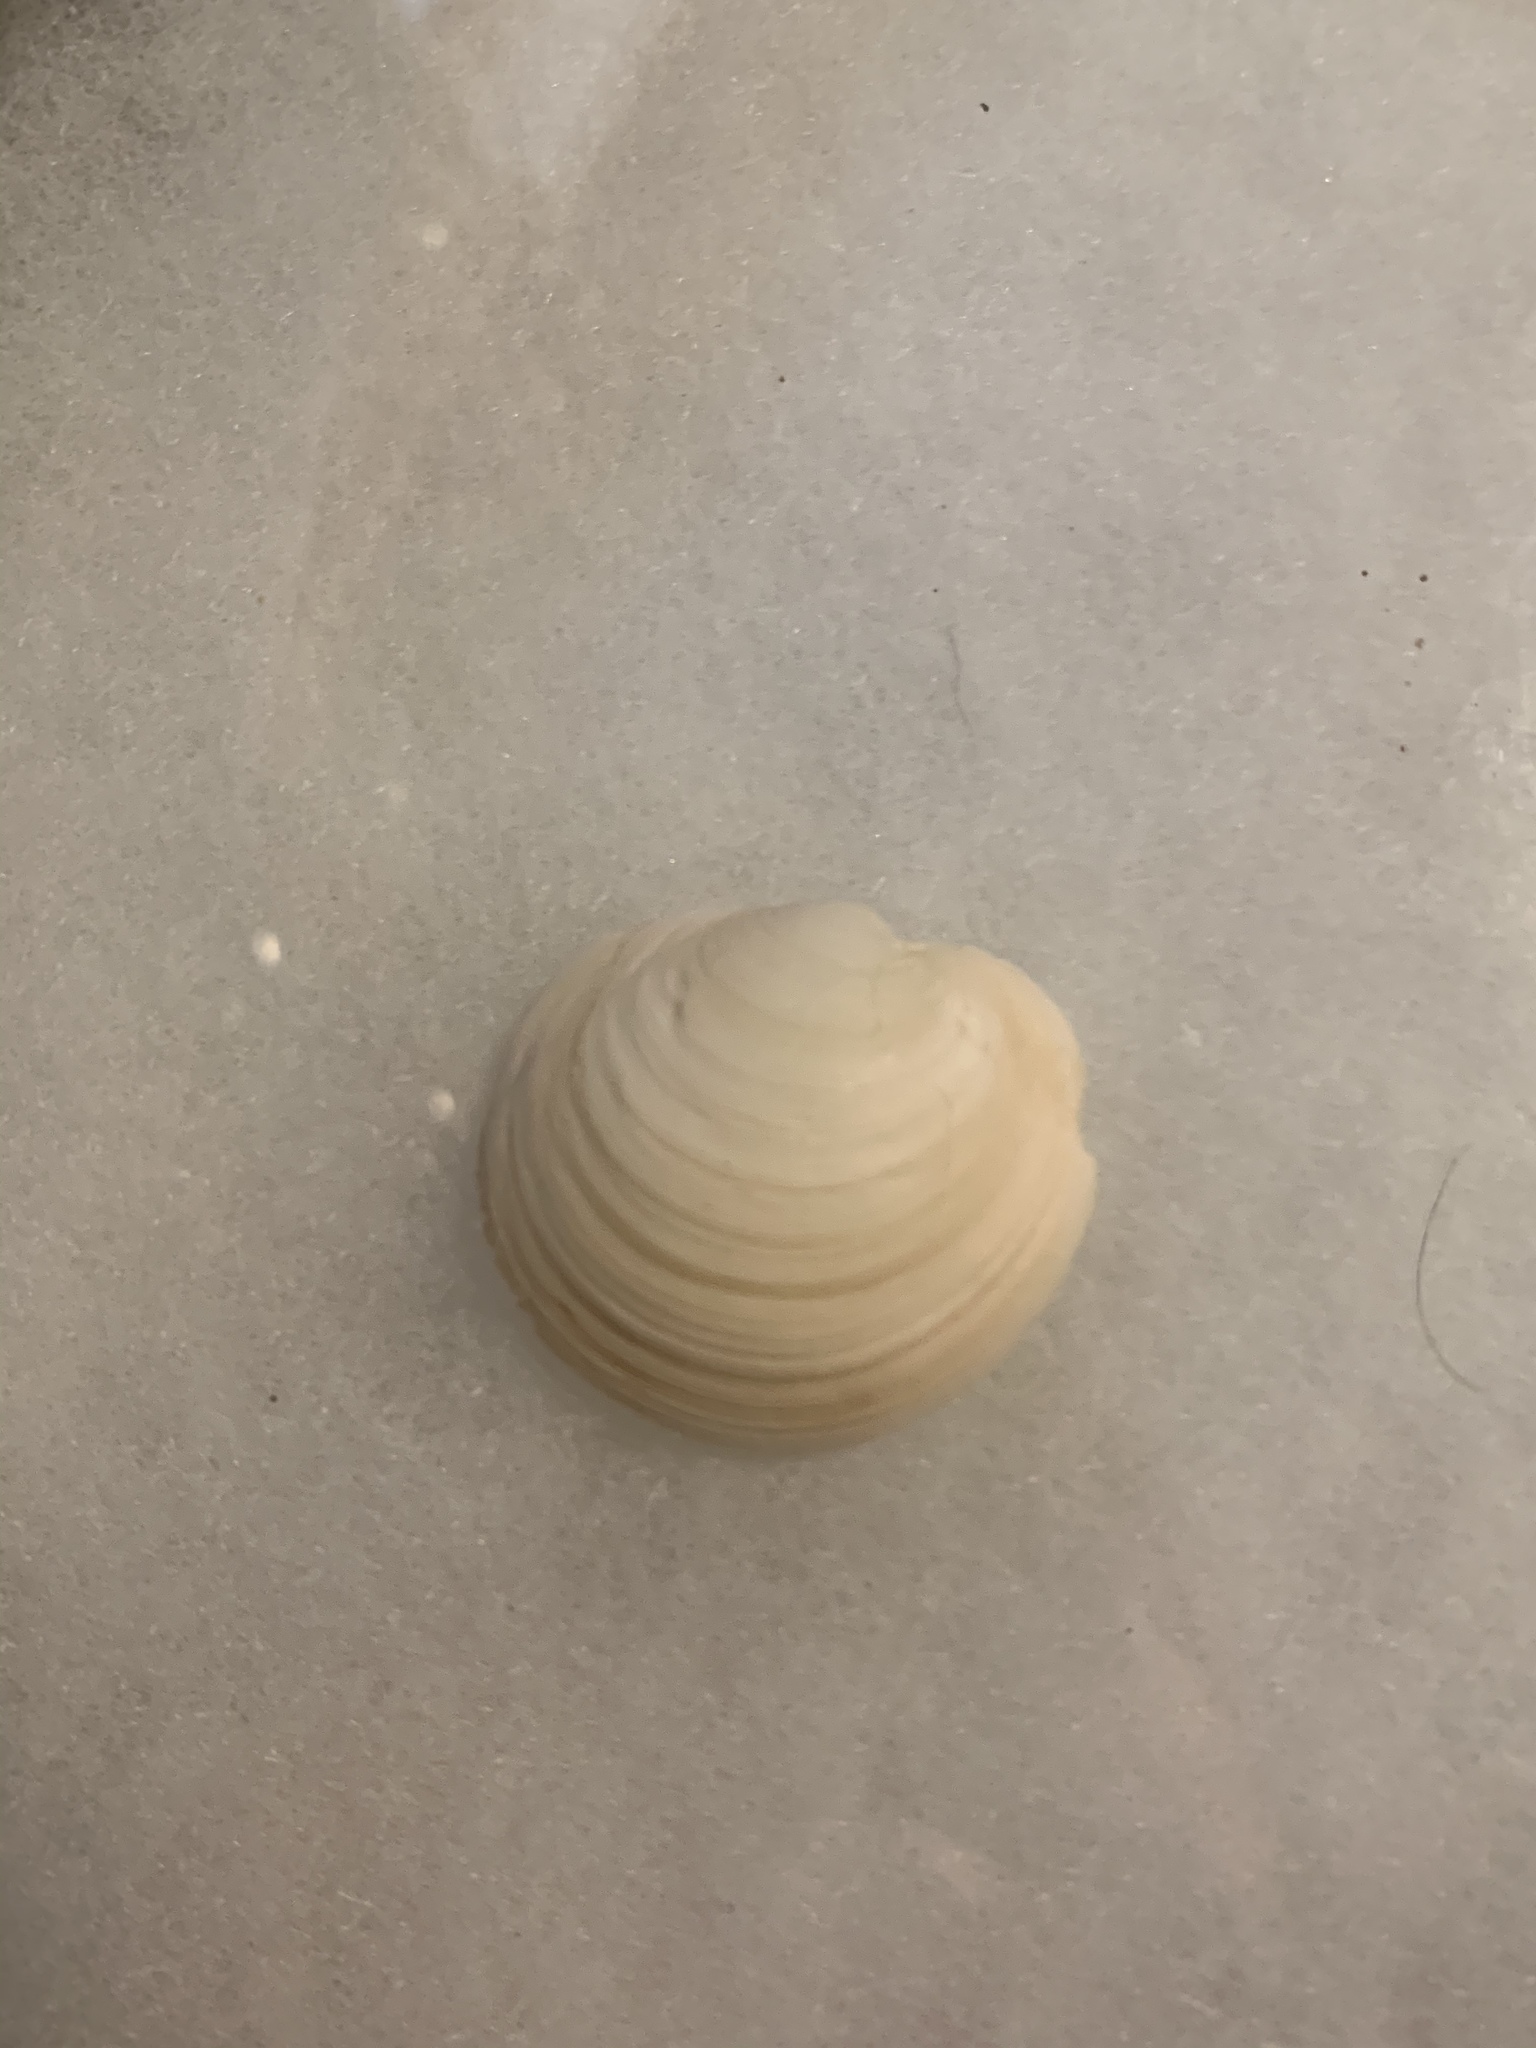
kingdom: Animalia
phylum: Mollusca
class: Bivalvia
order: Lucinida
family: Lucinidae
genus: Anodontia
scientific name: Anodontia alba
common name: Buttercup lucine
